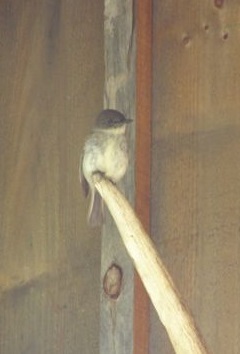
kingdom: Animalia
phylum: Chordata
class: Aves
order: Passeriformes
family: Tyrannidae
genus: Sayornis
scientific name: Sayornis phoebe
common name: Eastern phoebe
